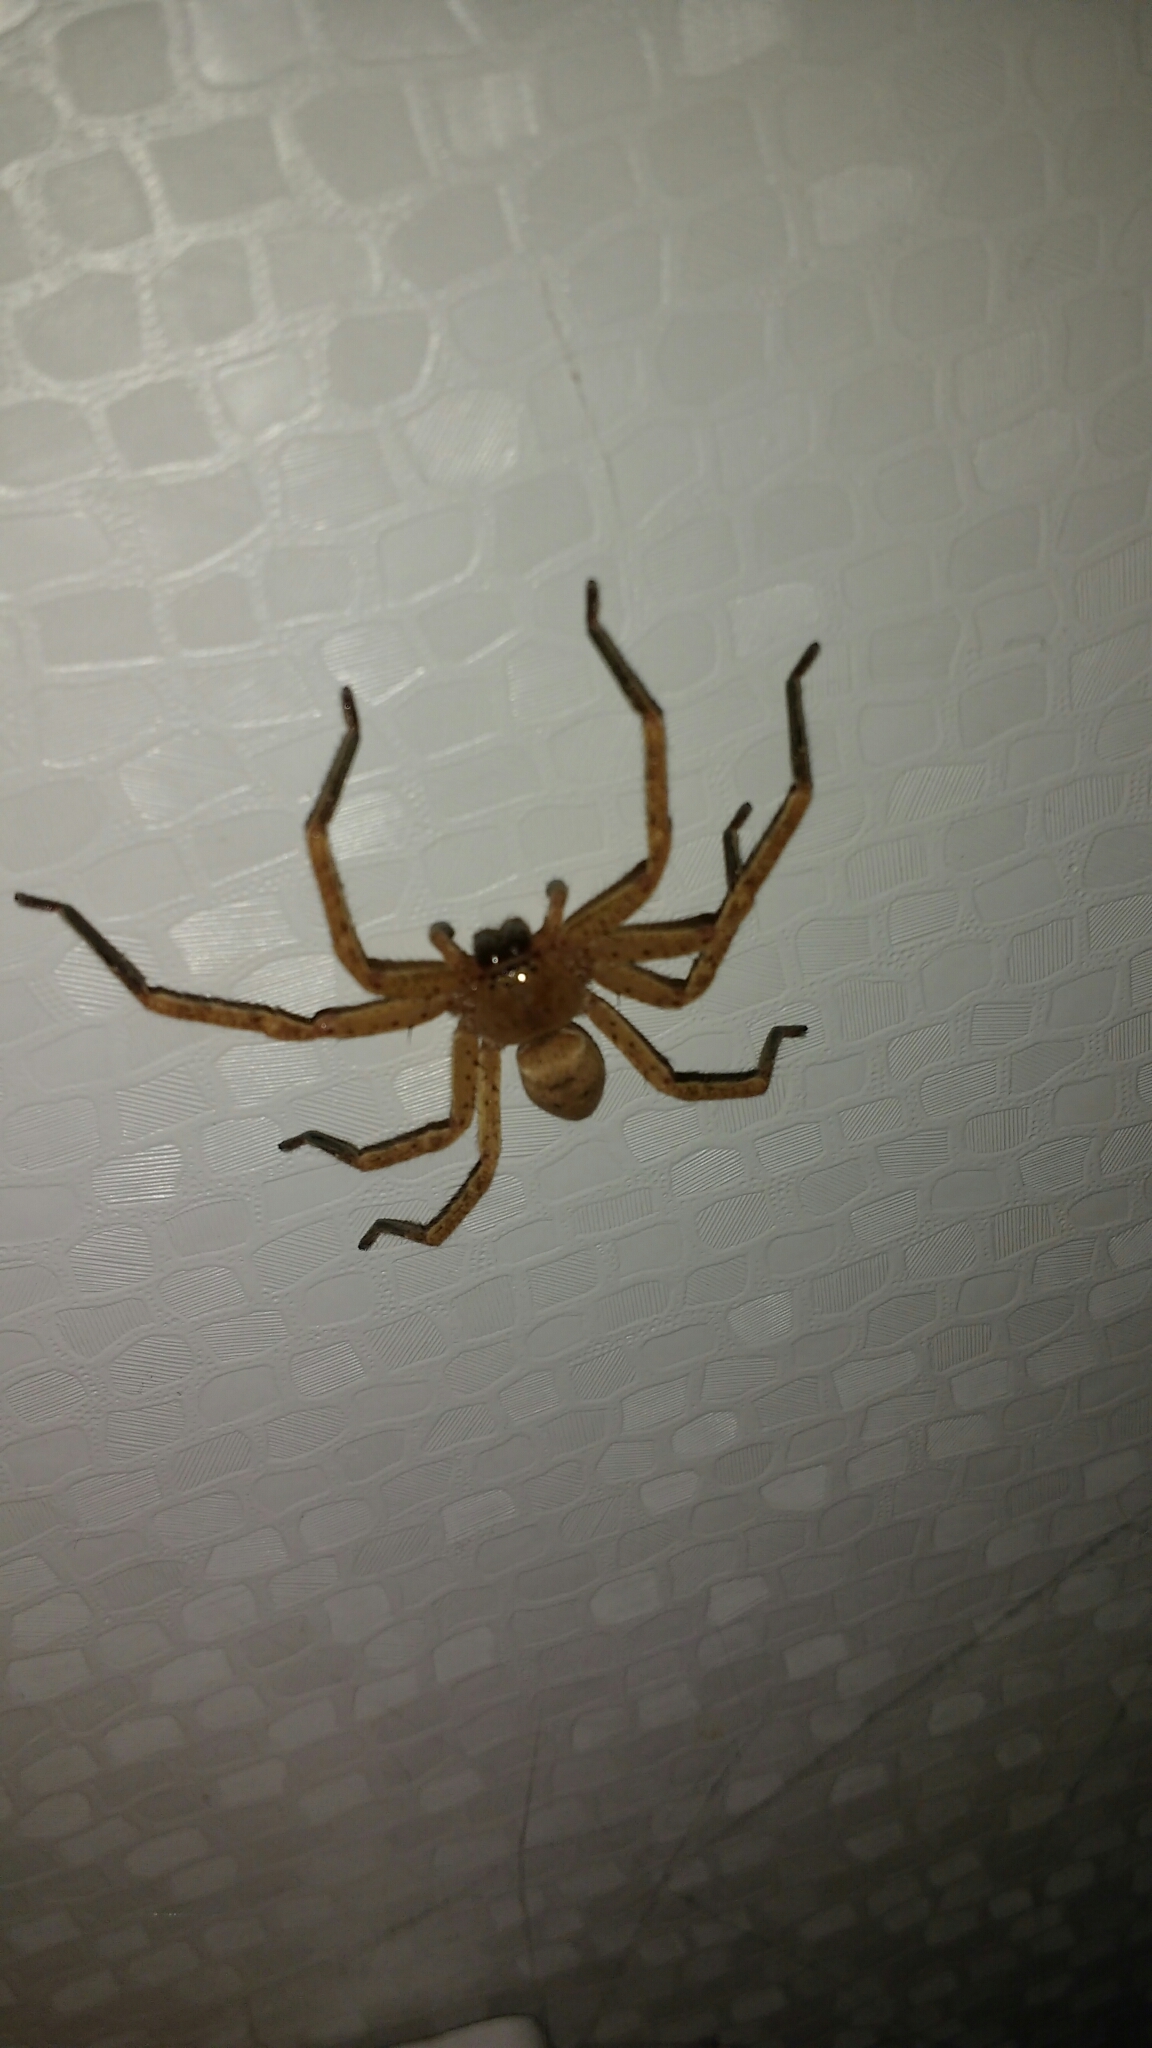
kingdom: Animalia
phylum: Arthropoda
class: Arachnida
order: Araneae
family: Sparassidae
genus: Olios
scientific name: Olios argelasius
